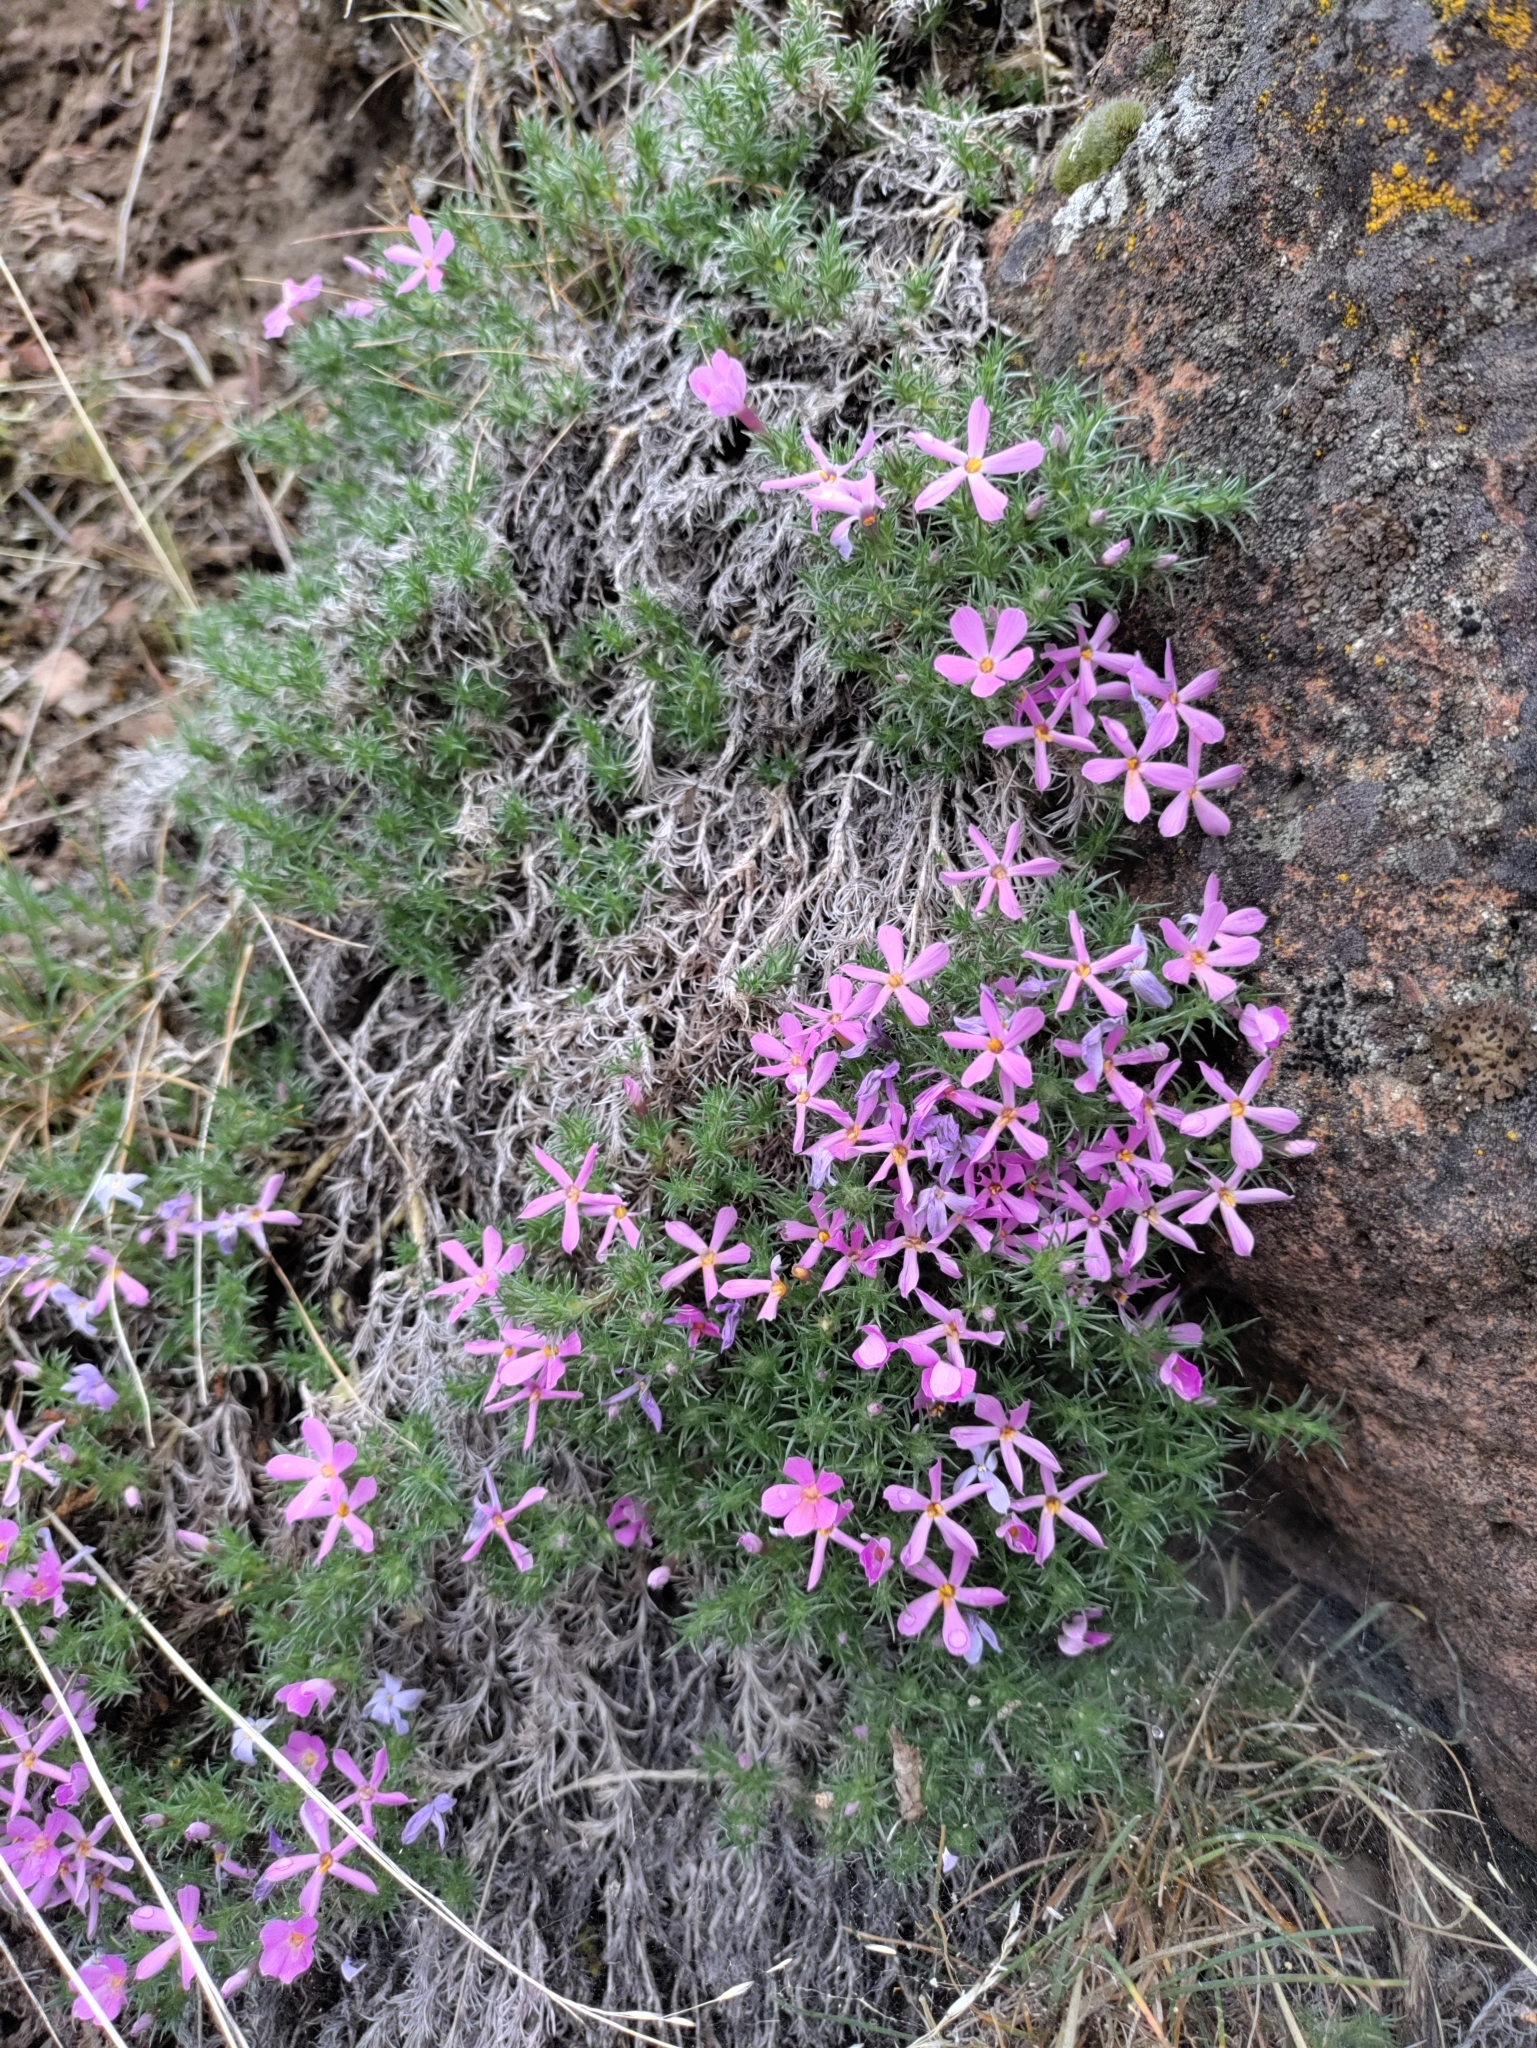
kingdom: Plantae
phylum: Tracheophyta
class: Magnoliopsida
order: Ericales
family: Polemoniaceae
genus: Phlox
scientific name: Phlox douglasii
